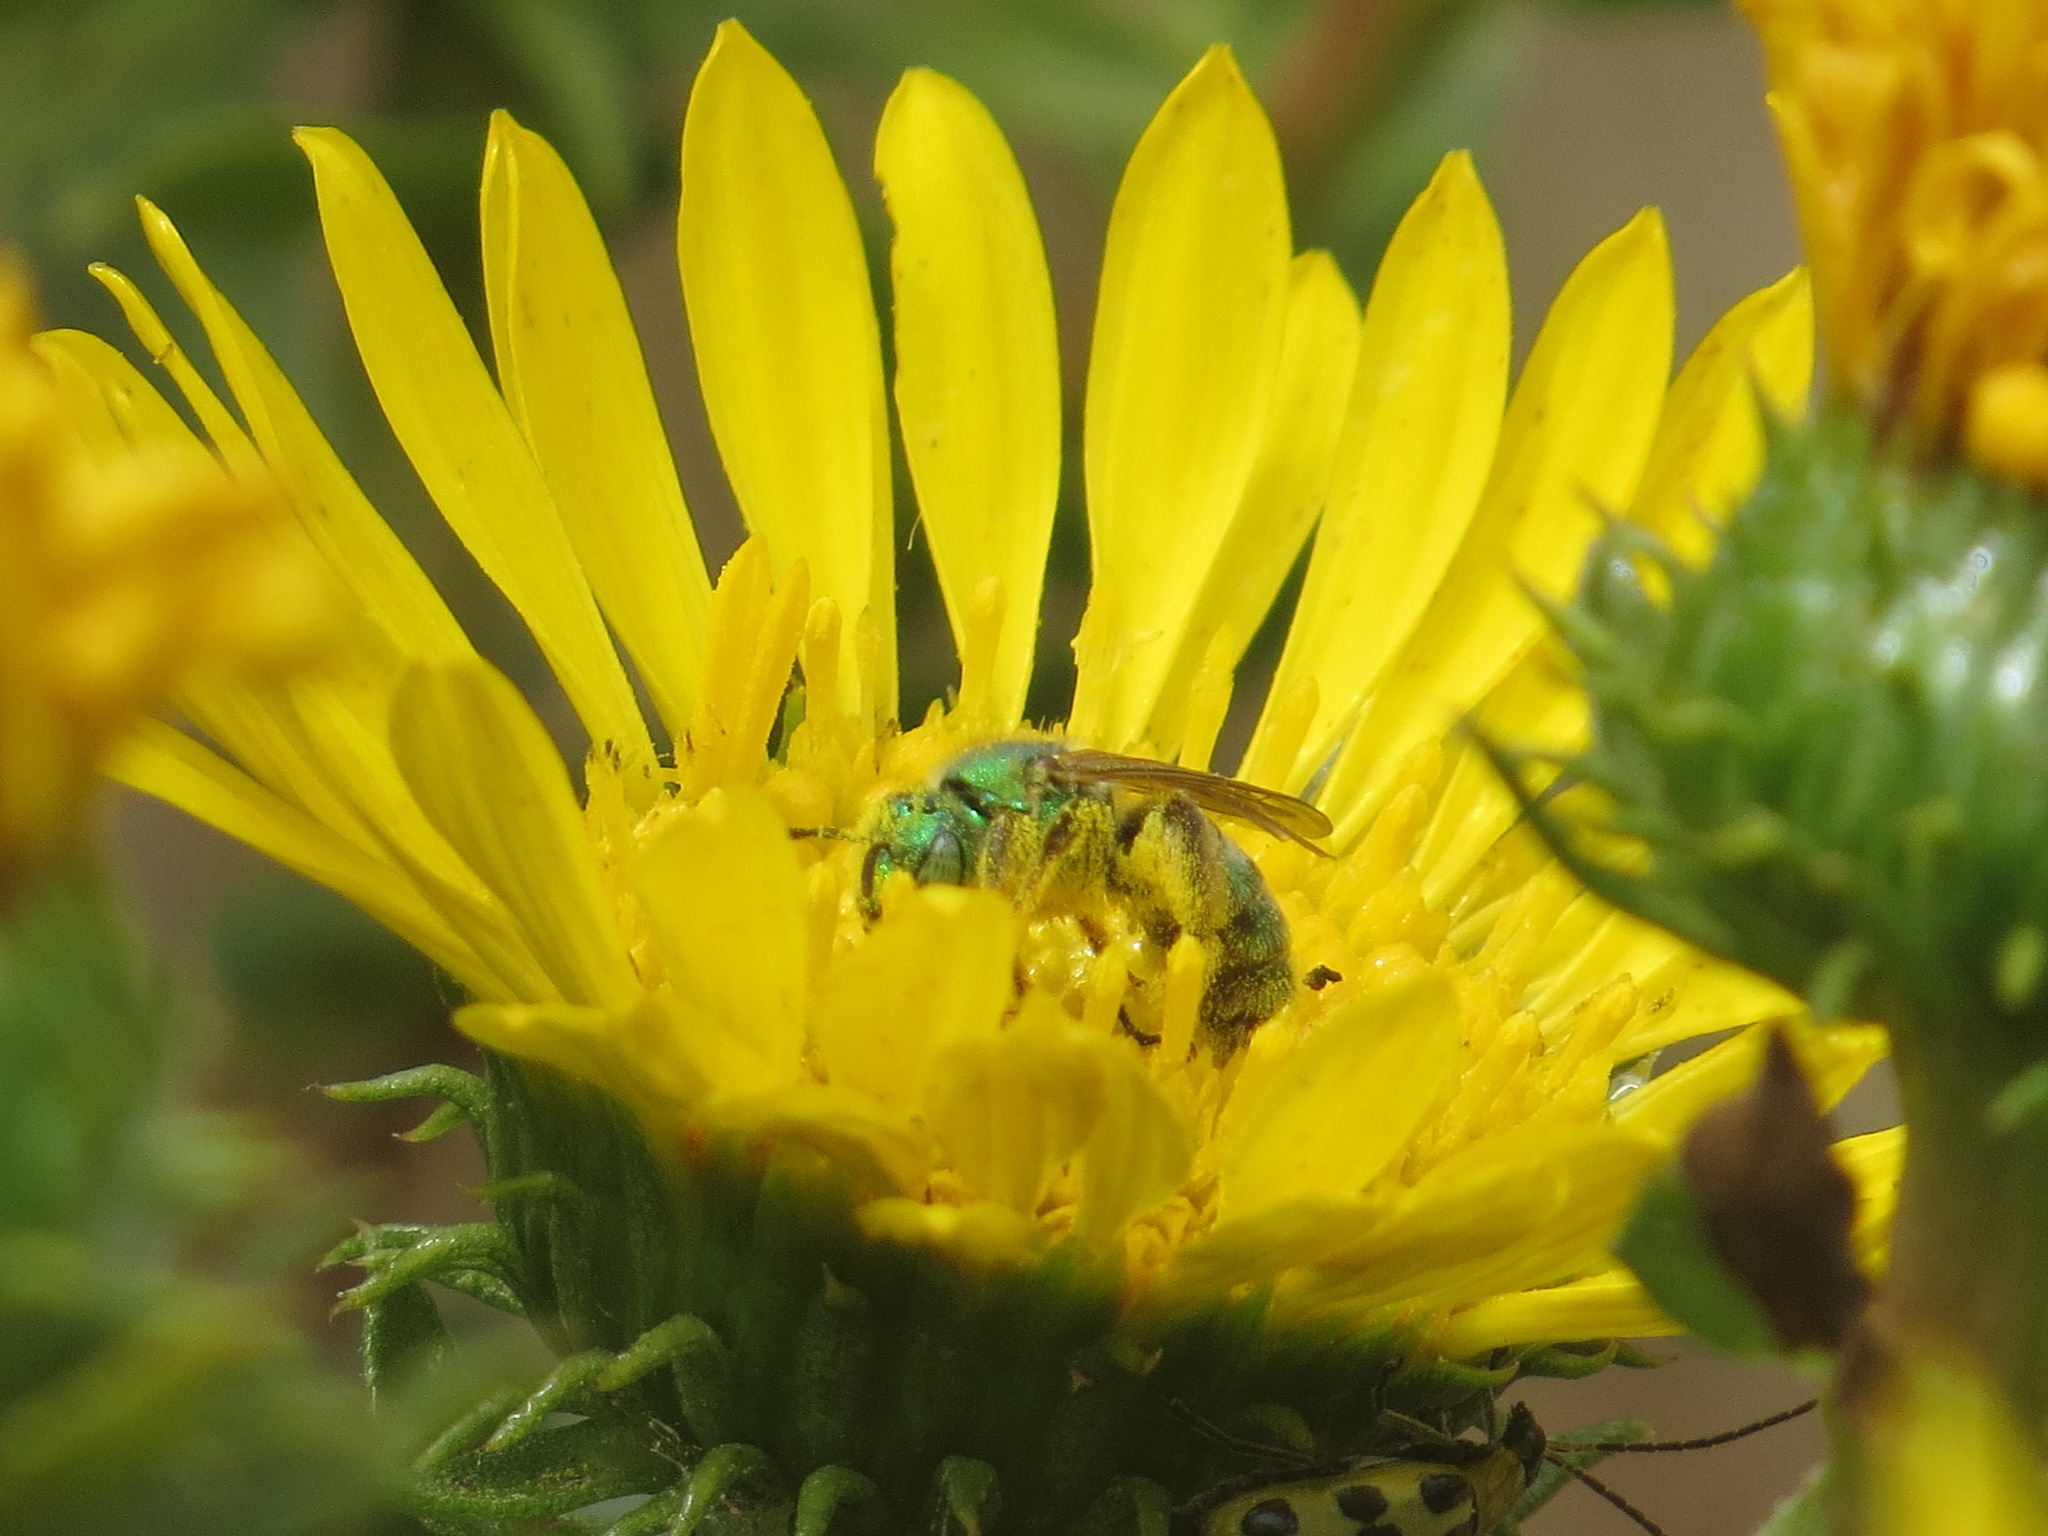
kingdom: Animalia
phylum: Arthropoda
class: Insecta
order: Hymenoptera
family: Halictidae
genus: Agapostemon
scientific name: Agapostemon texanus
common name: Texas striped sweat bee
